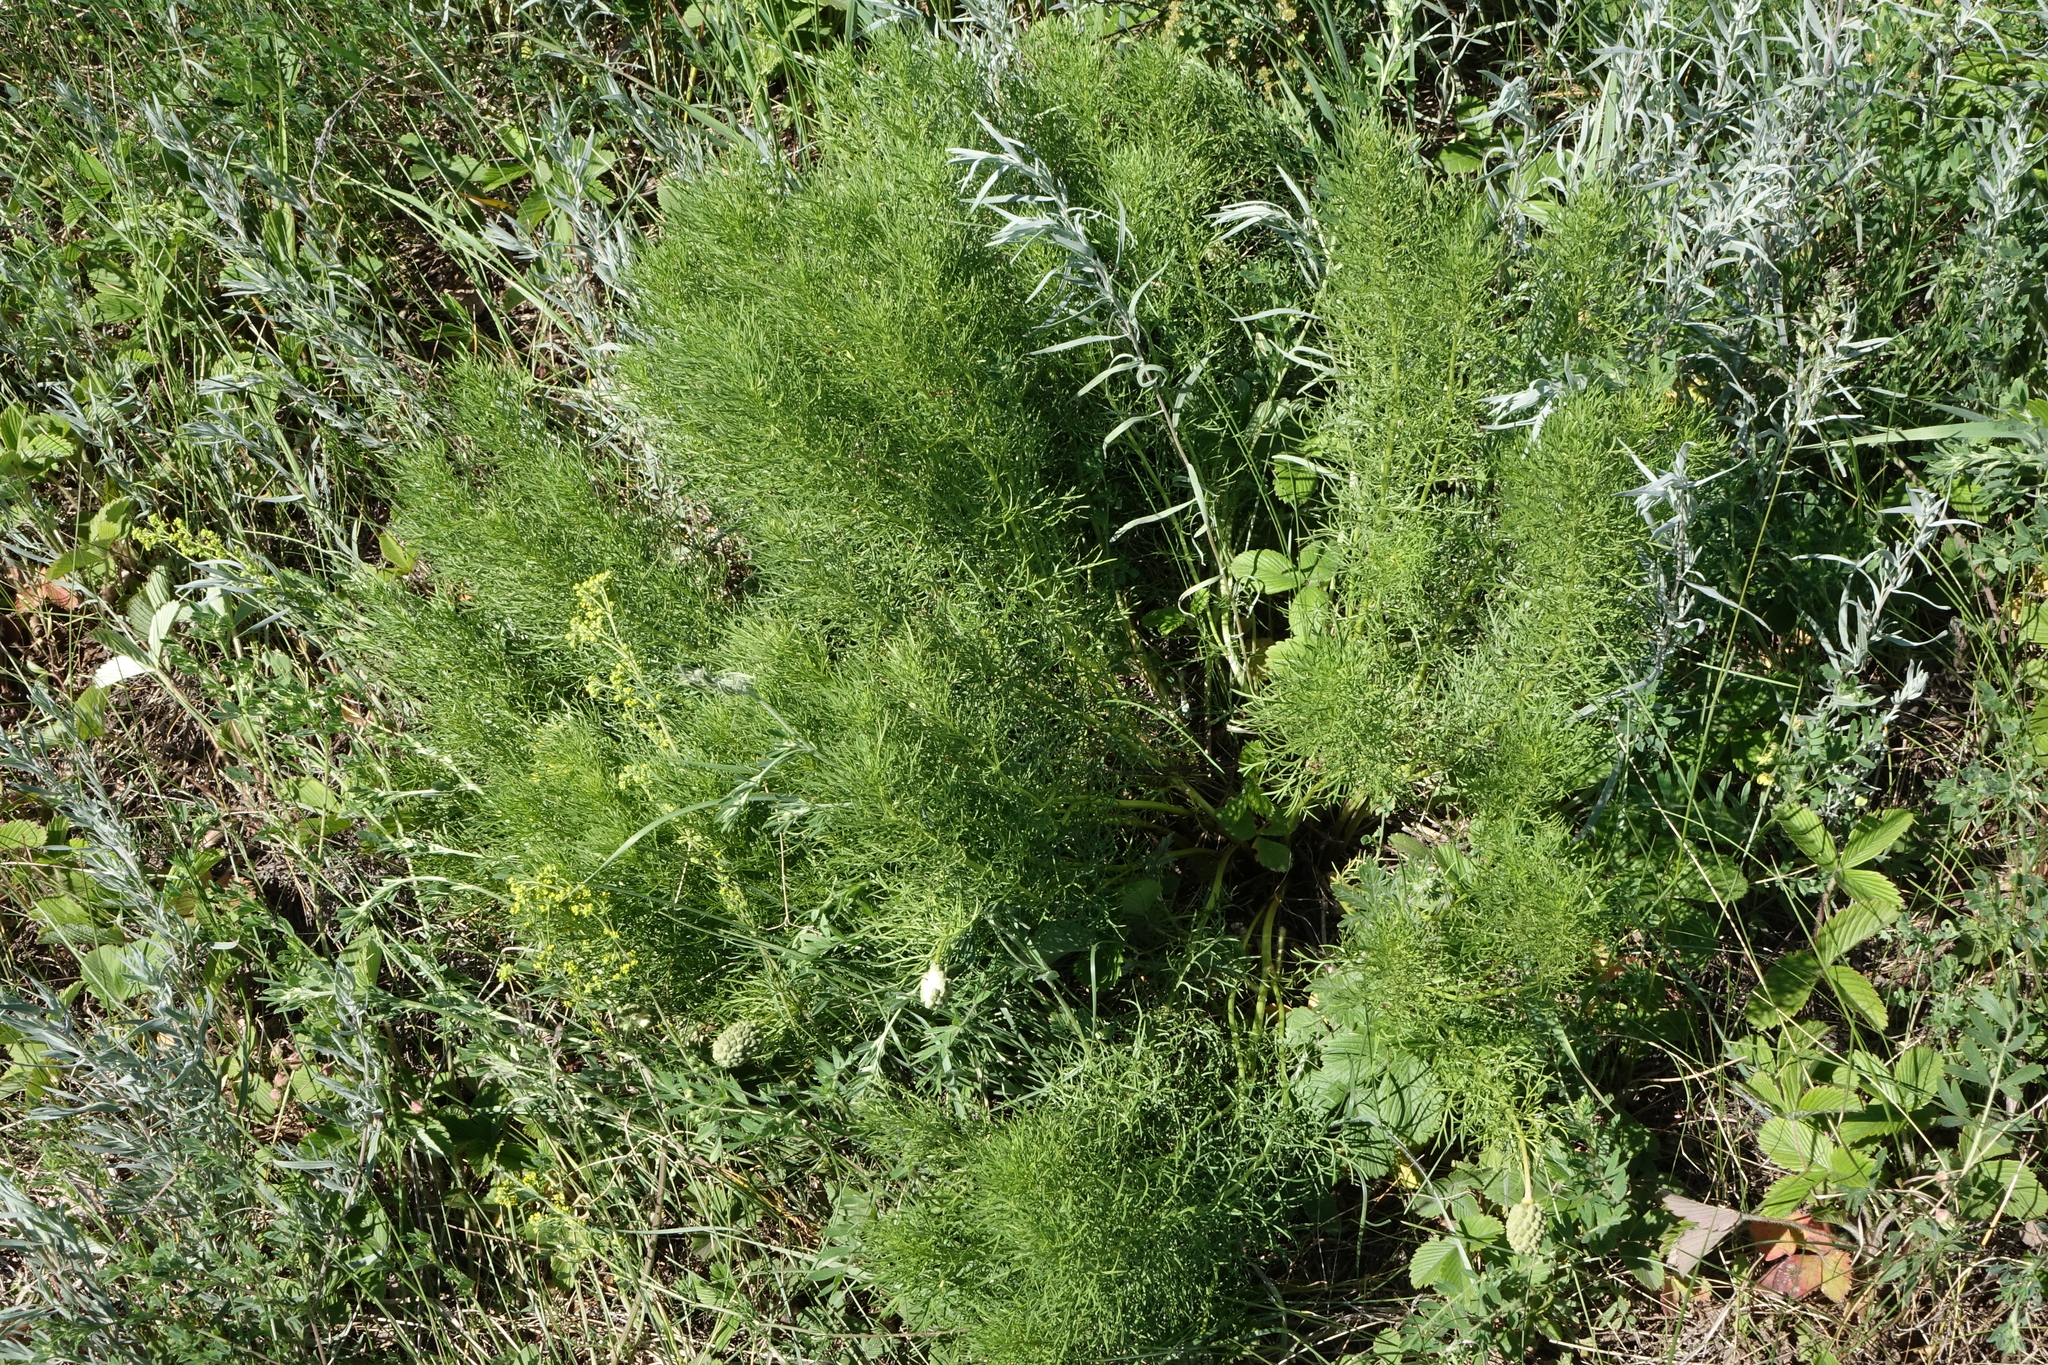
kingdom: Plantae
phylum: Tracheophyta
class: Magnoliopsida
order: Ranunculales
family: Ranunculaceae
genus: Adonis
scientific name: Adonis vernalis
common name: Yellow pheasants-eye
